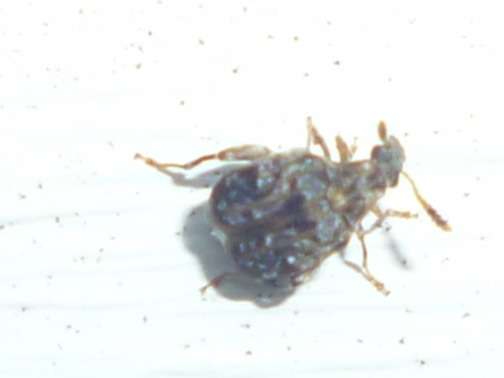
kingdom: Animalia
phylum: Arthropoda
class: Insecta
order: Coleoptera
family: Chrysomelidae
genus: Gibbobruchus
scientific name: Gibbobruchus mimus
